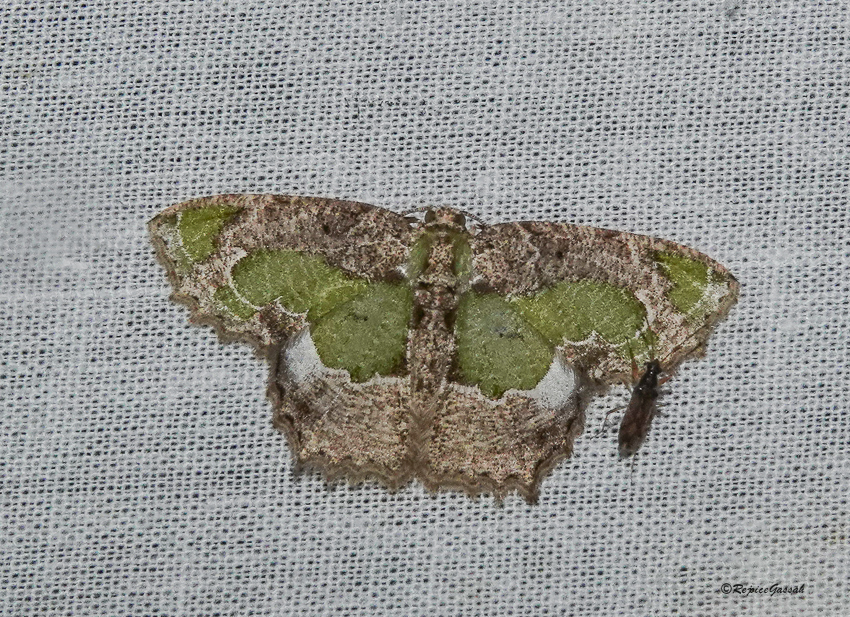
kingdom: Animalia
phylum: Arthropoda
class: Insecta
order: Lepidoptera
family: Geometridae
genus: Eucyclodes
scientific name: Eucyclodes discipennata
